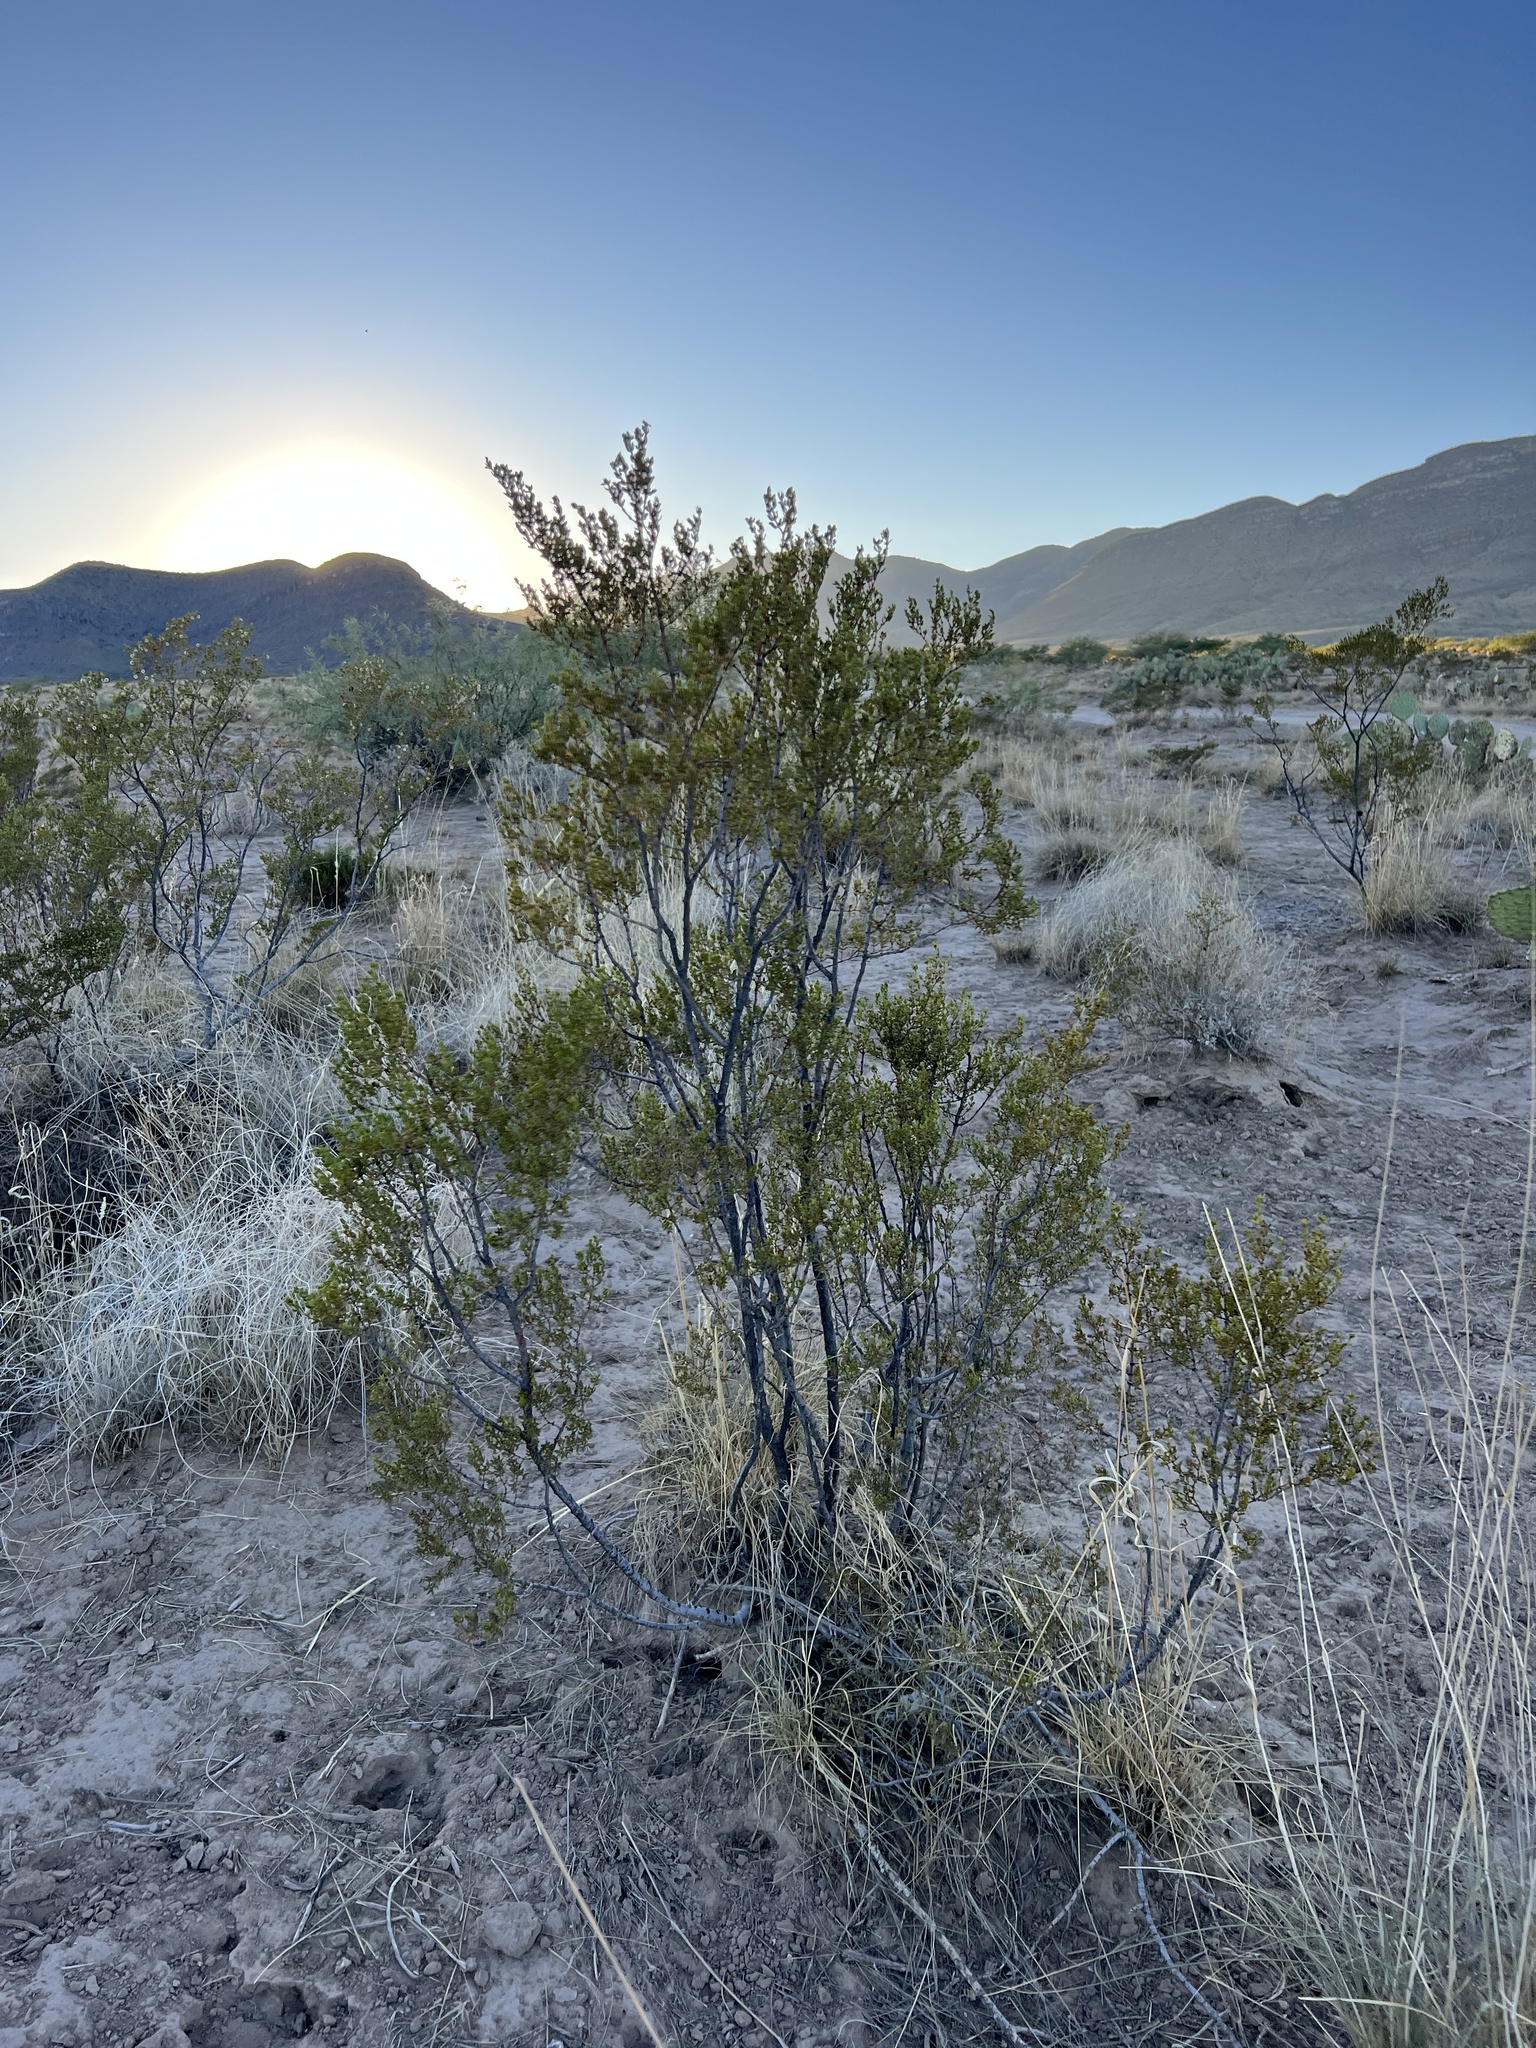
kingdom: Plantae
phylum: Tracheophyta
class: Magnoliopsida
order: Zygophyllales
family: Zygophyllaceae
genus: Larrea
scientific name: Larrea tridentata
